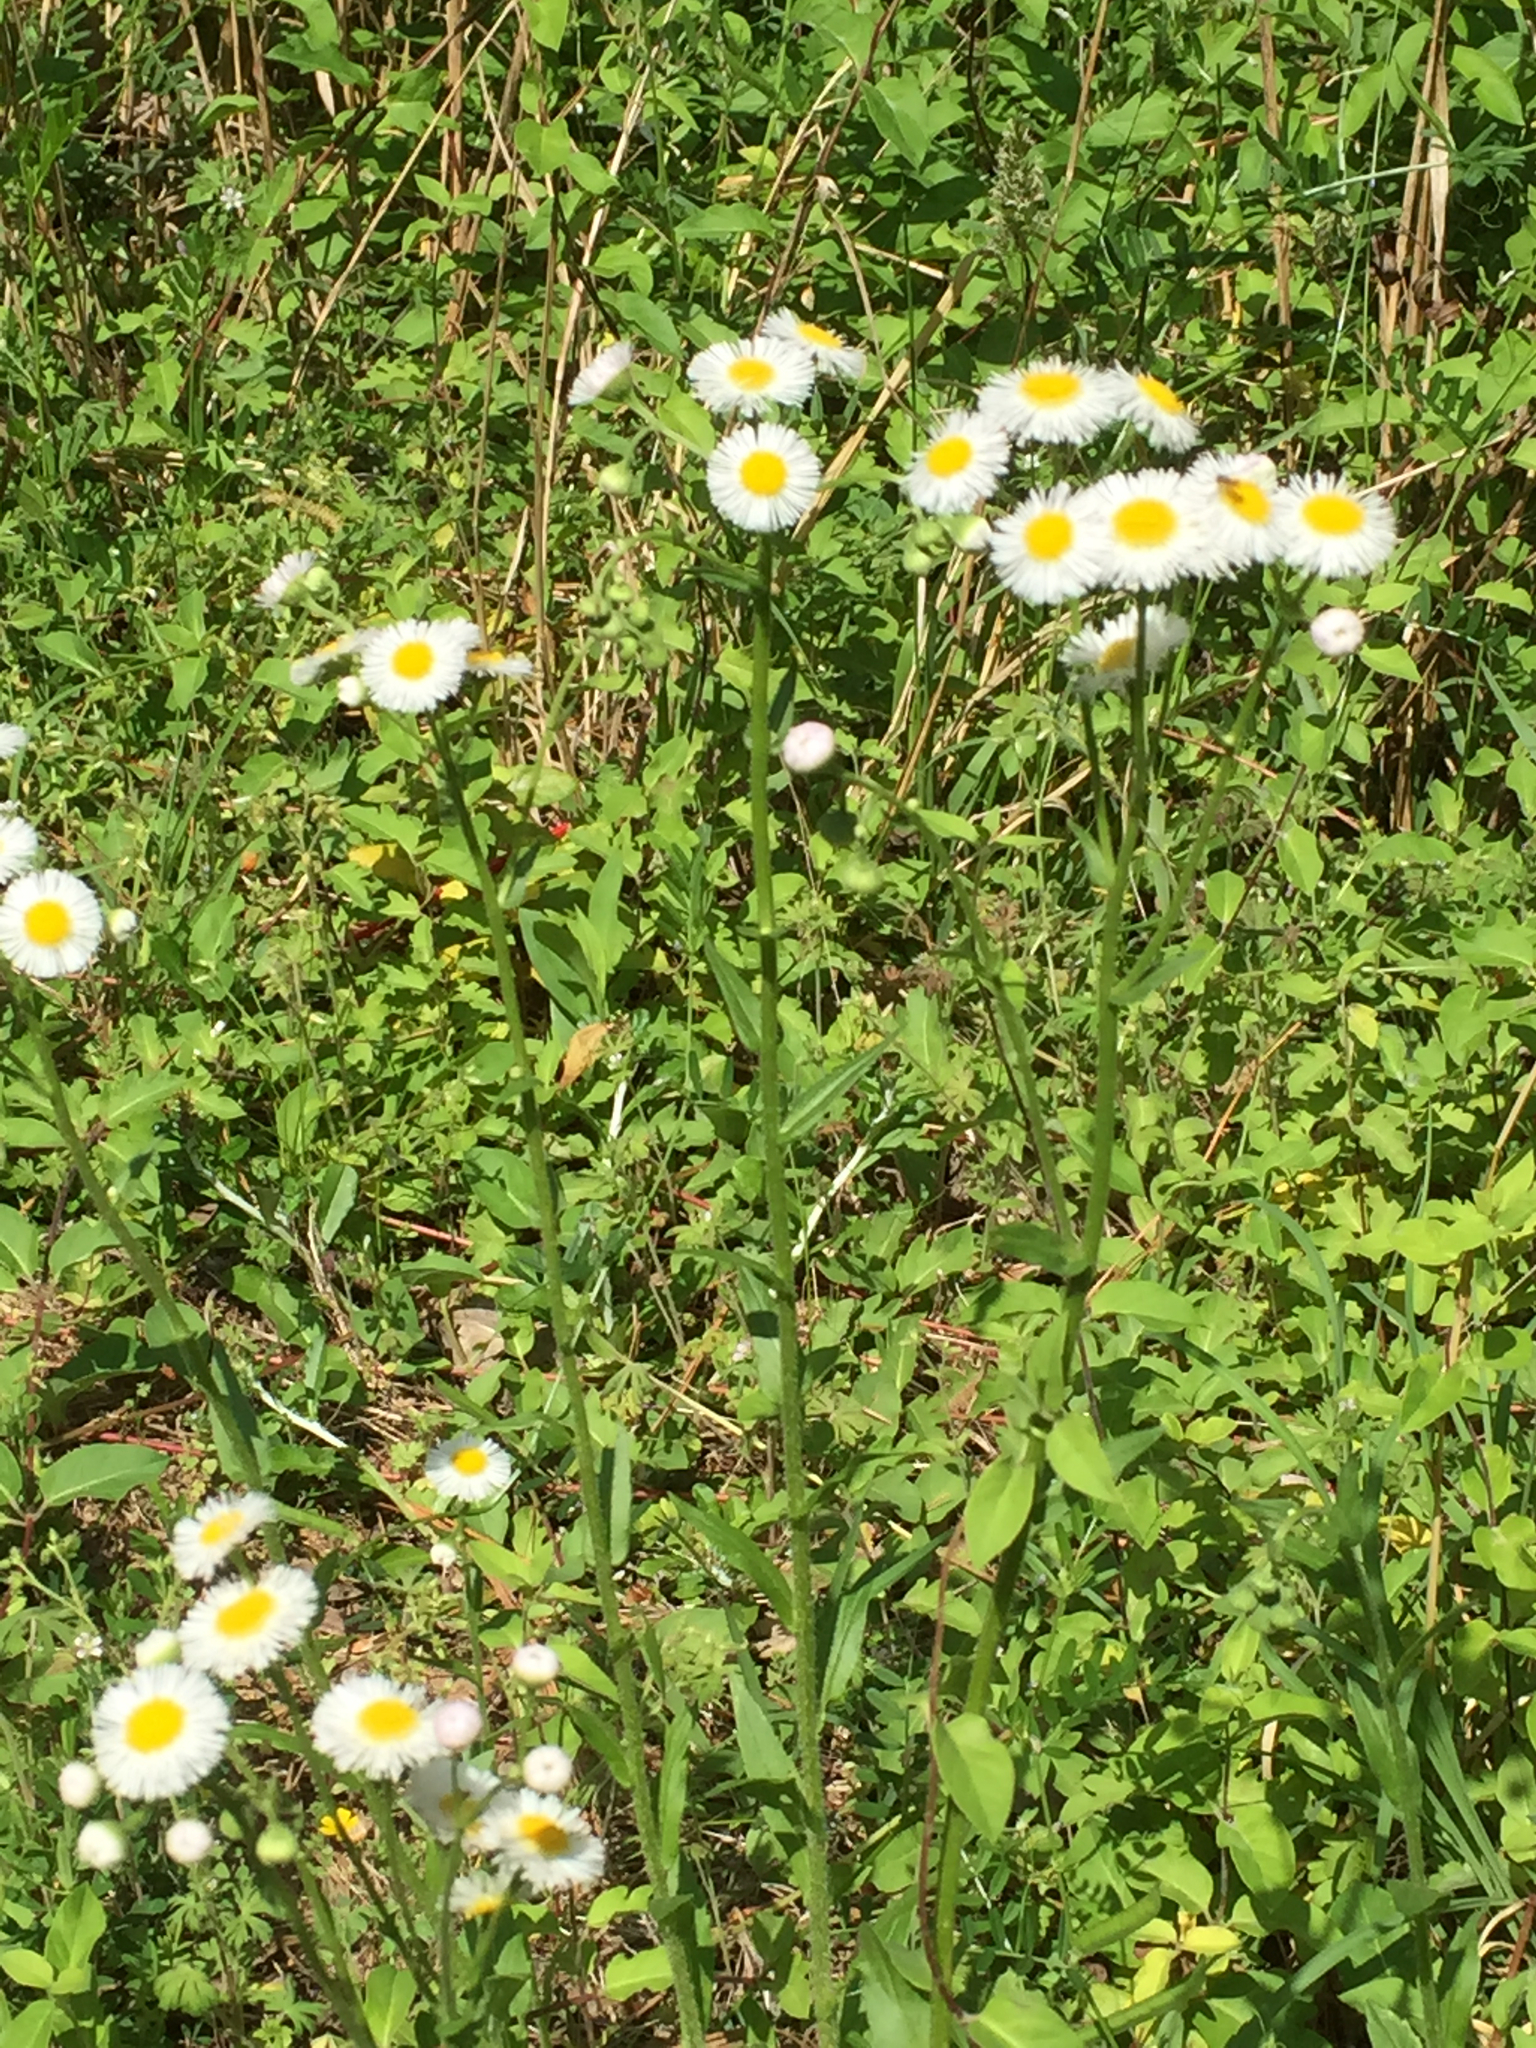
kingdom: Plantae
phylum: Tracheophyta
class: Magnoliopsida
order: Asterales
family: Asteraceae
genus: Erigeron
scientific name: Erigeron philadelphicus
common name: Robin's-plantain
